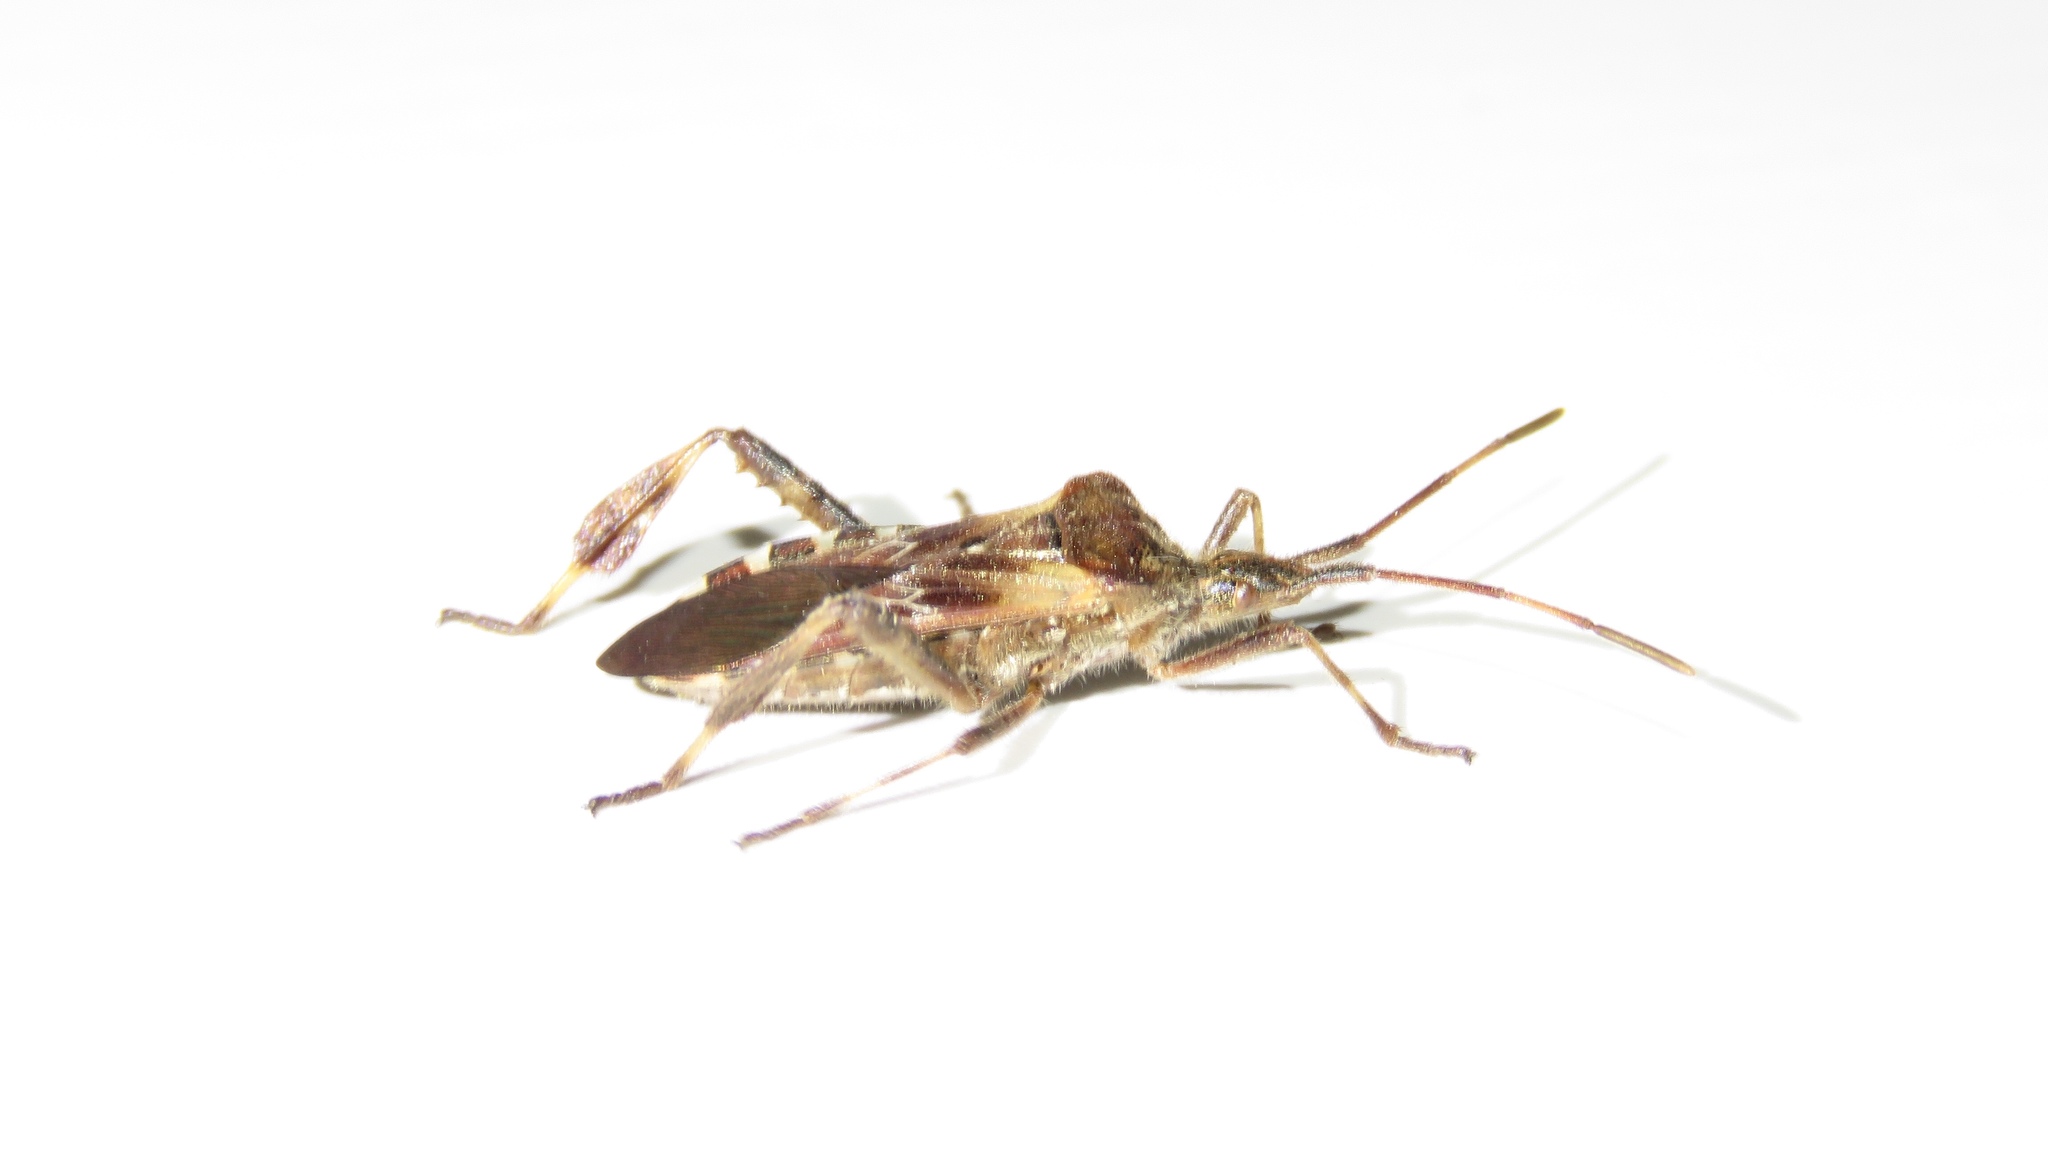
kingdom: Animalia
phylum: Arthropoda
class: Insecta
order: Hemiptera
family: Coreidae
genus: Leptoglossus
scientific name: Leptoglossus occidentalis
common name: Western conifer-seed bug
